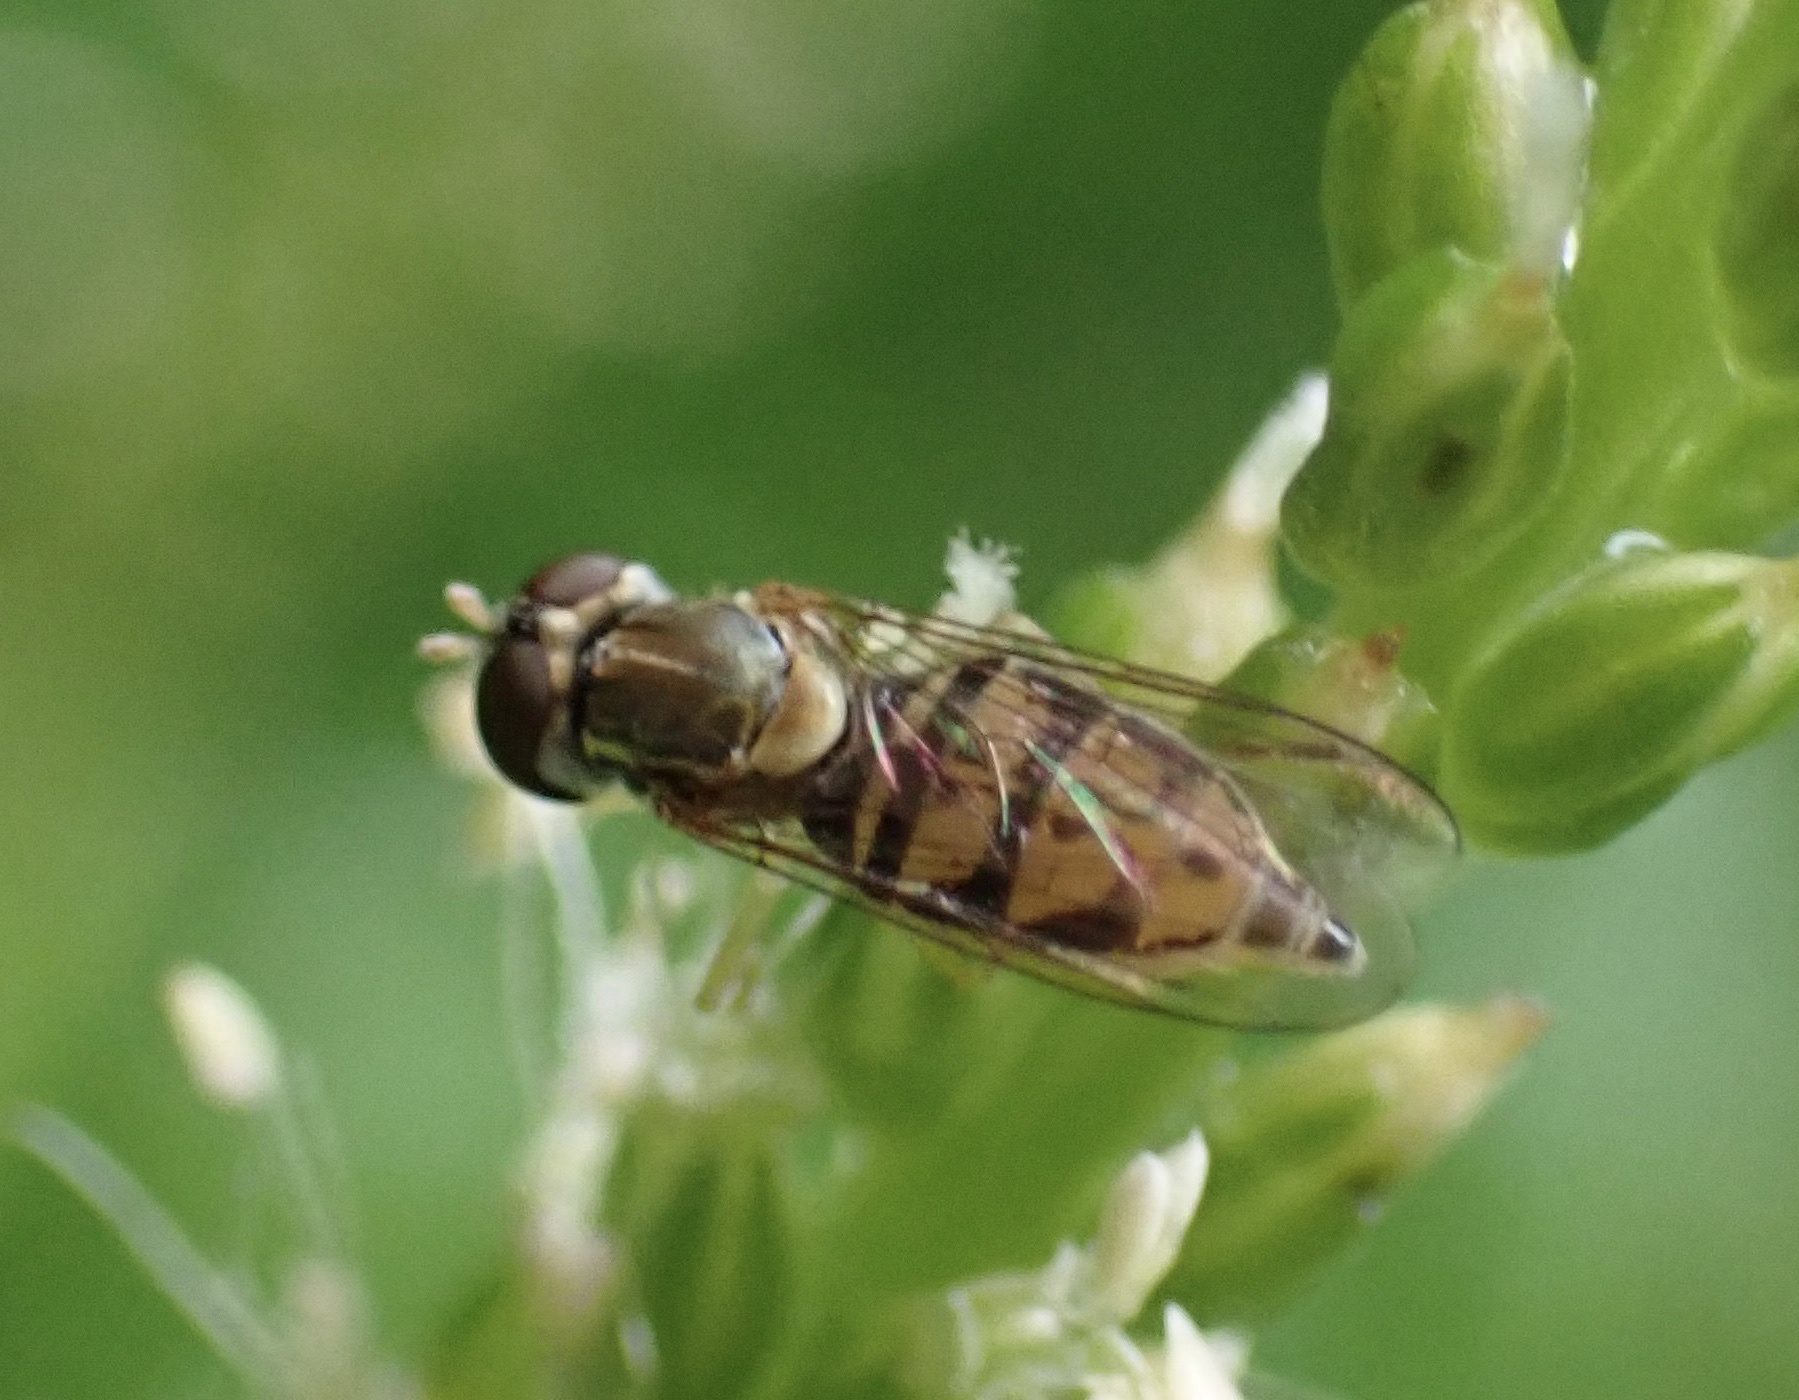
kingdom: Animalia
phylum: Arthropoda
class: Insecta
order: Diptera
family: Syrphidae
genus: Toxomerus
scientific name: Toxomerus marginatus
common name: Syrphid fly
